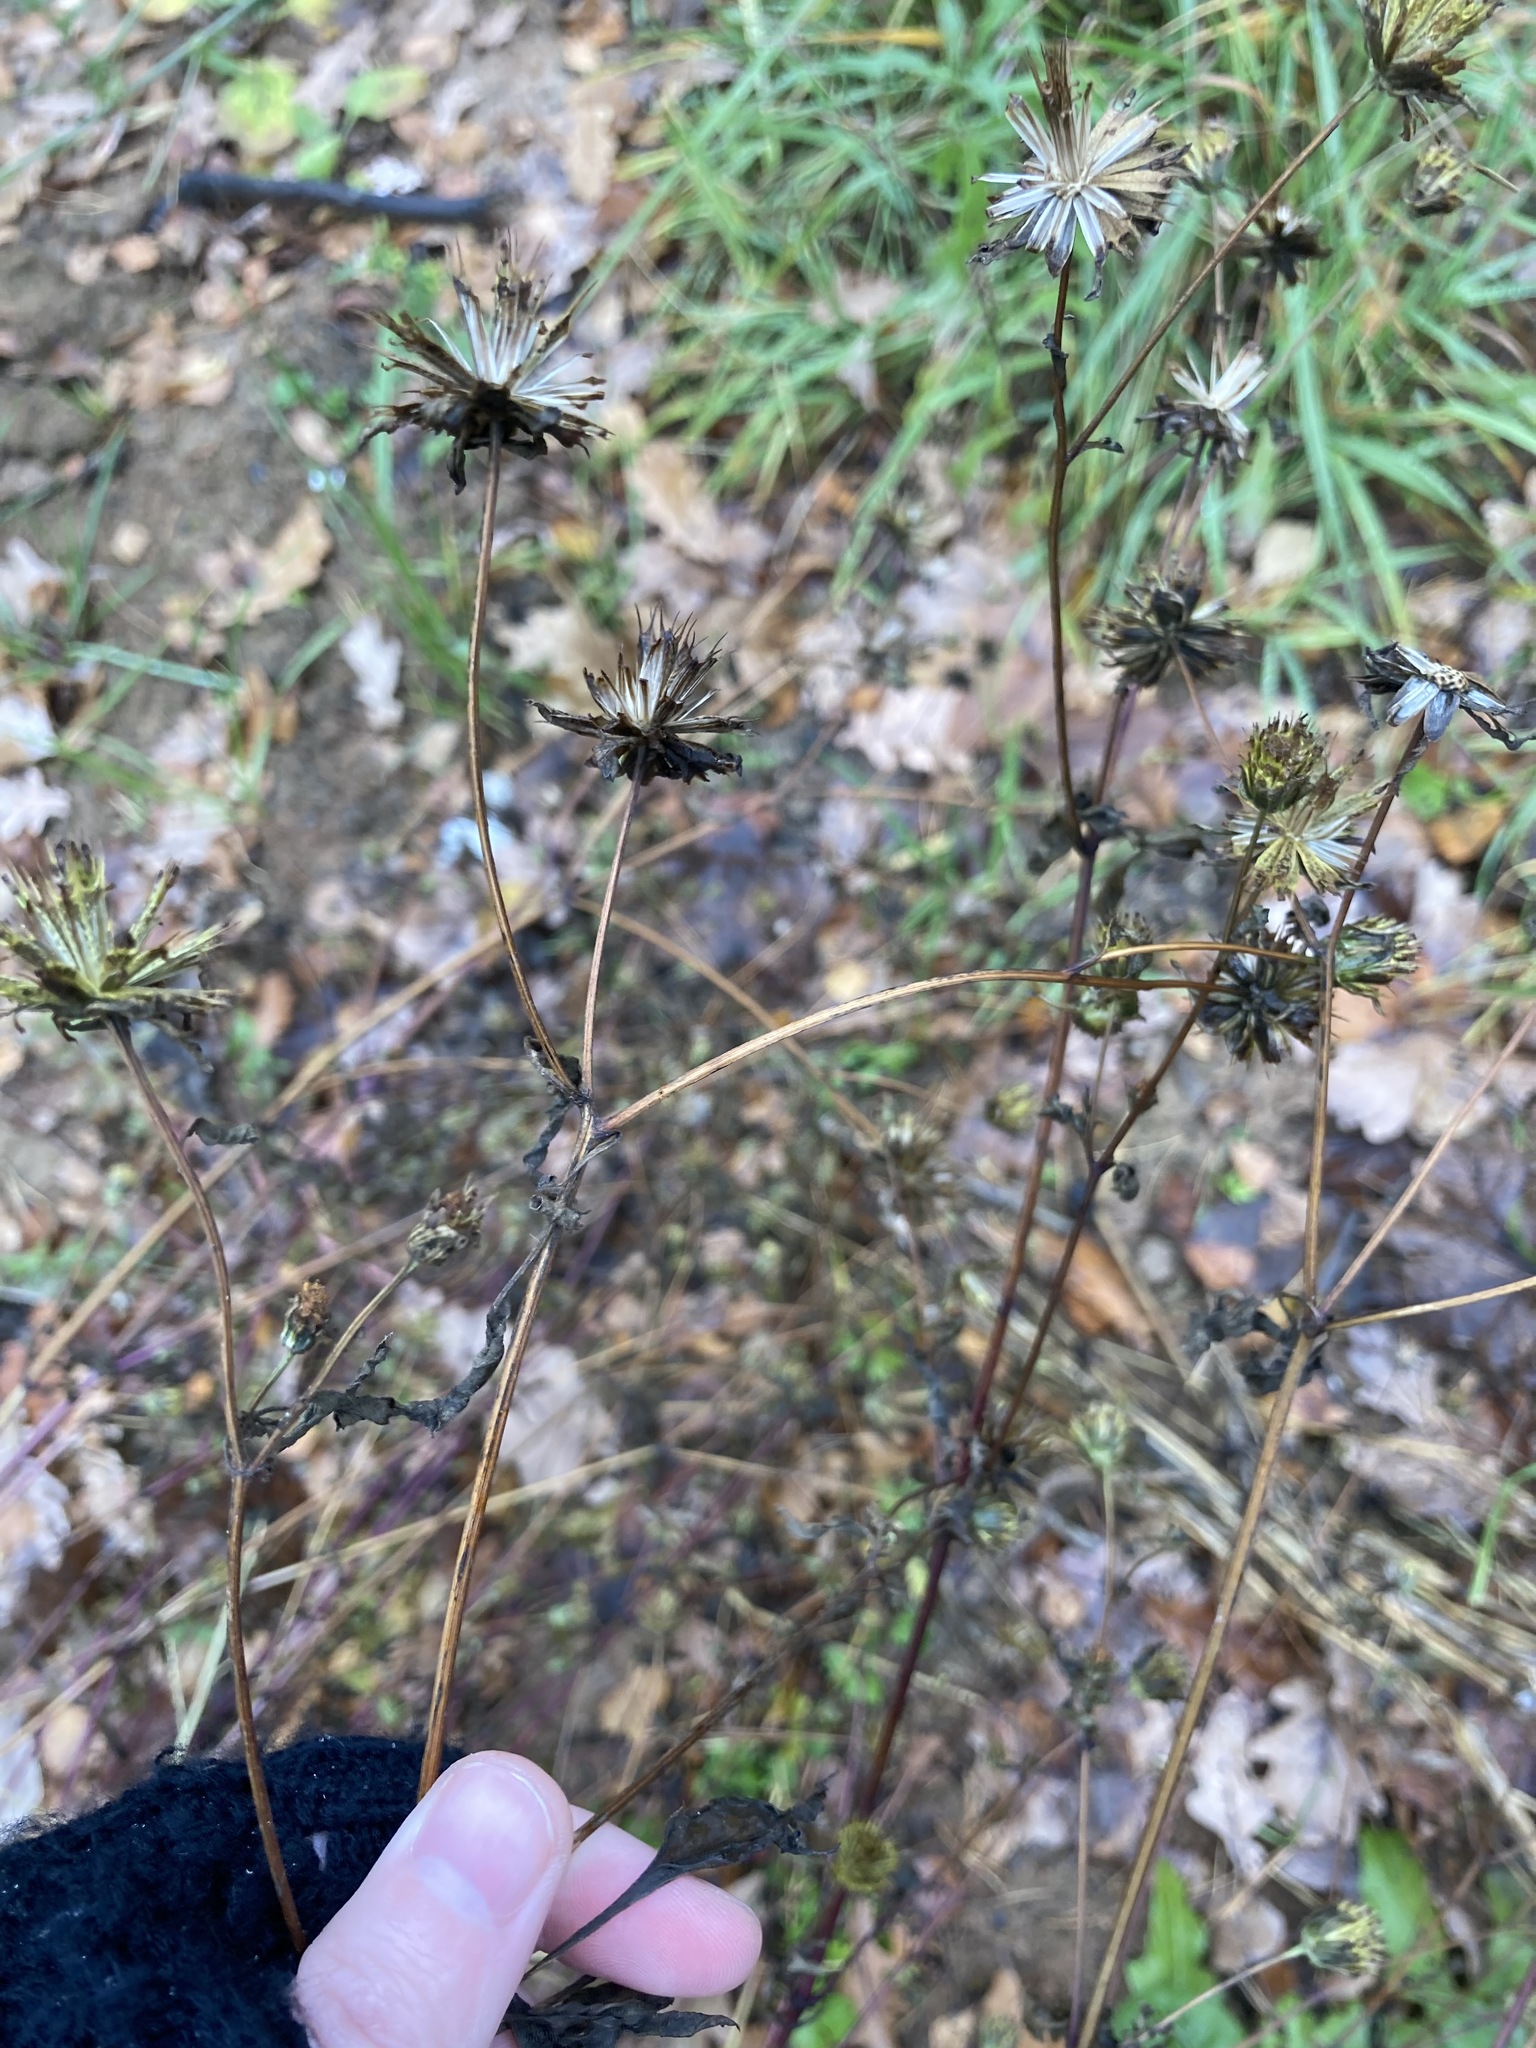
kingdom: Plantae
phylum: Tracheophyta
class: Magnoliopsida
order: Asterales
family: Asteraceae
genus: Bidens
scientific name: Bidens frondosa
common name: Beggarticks
